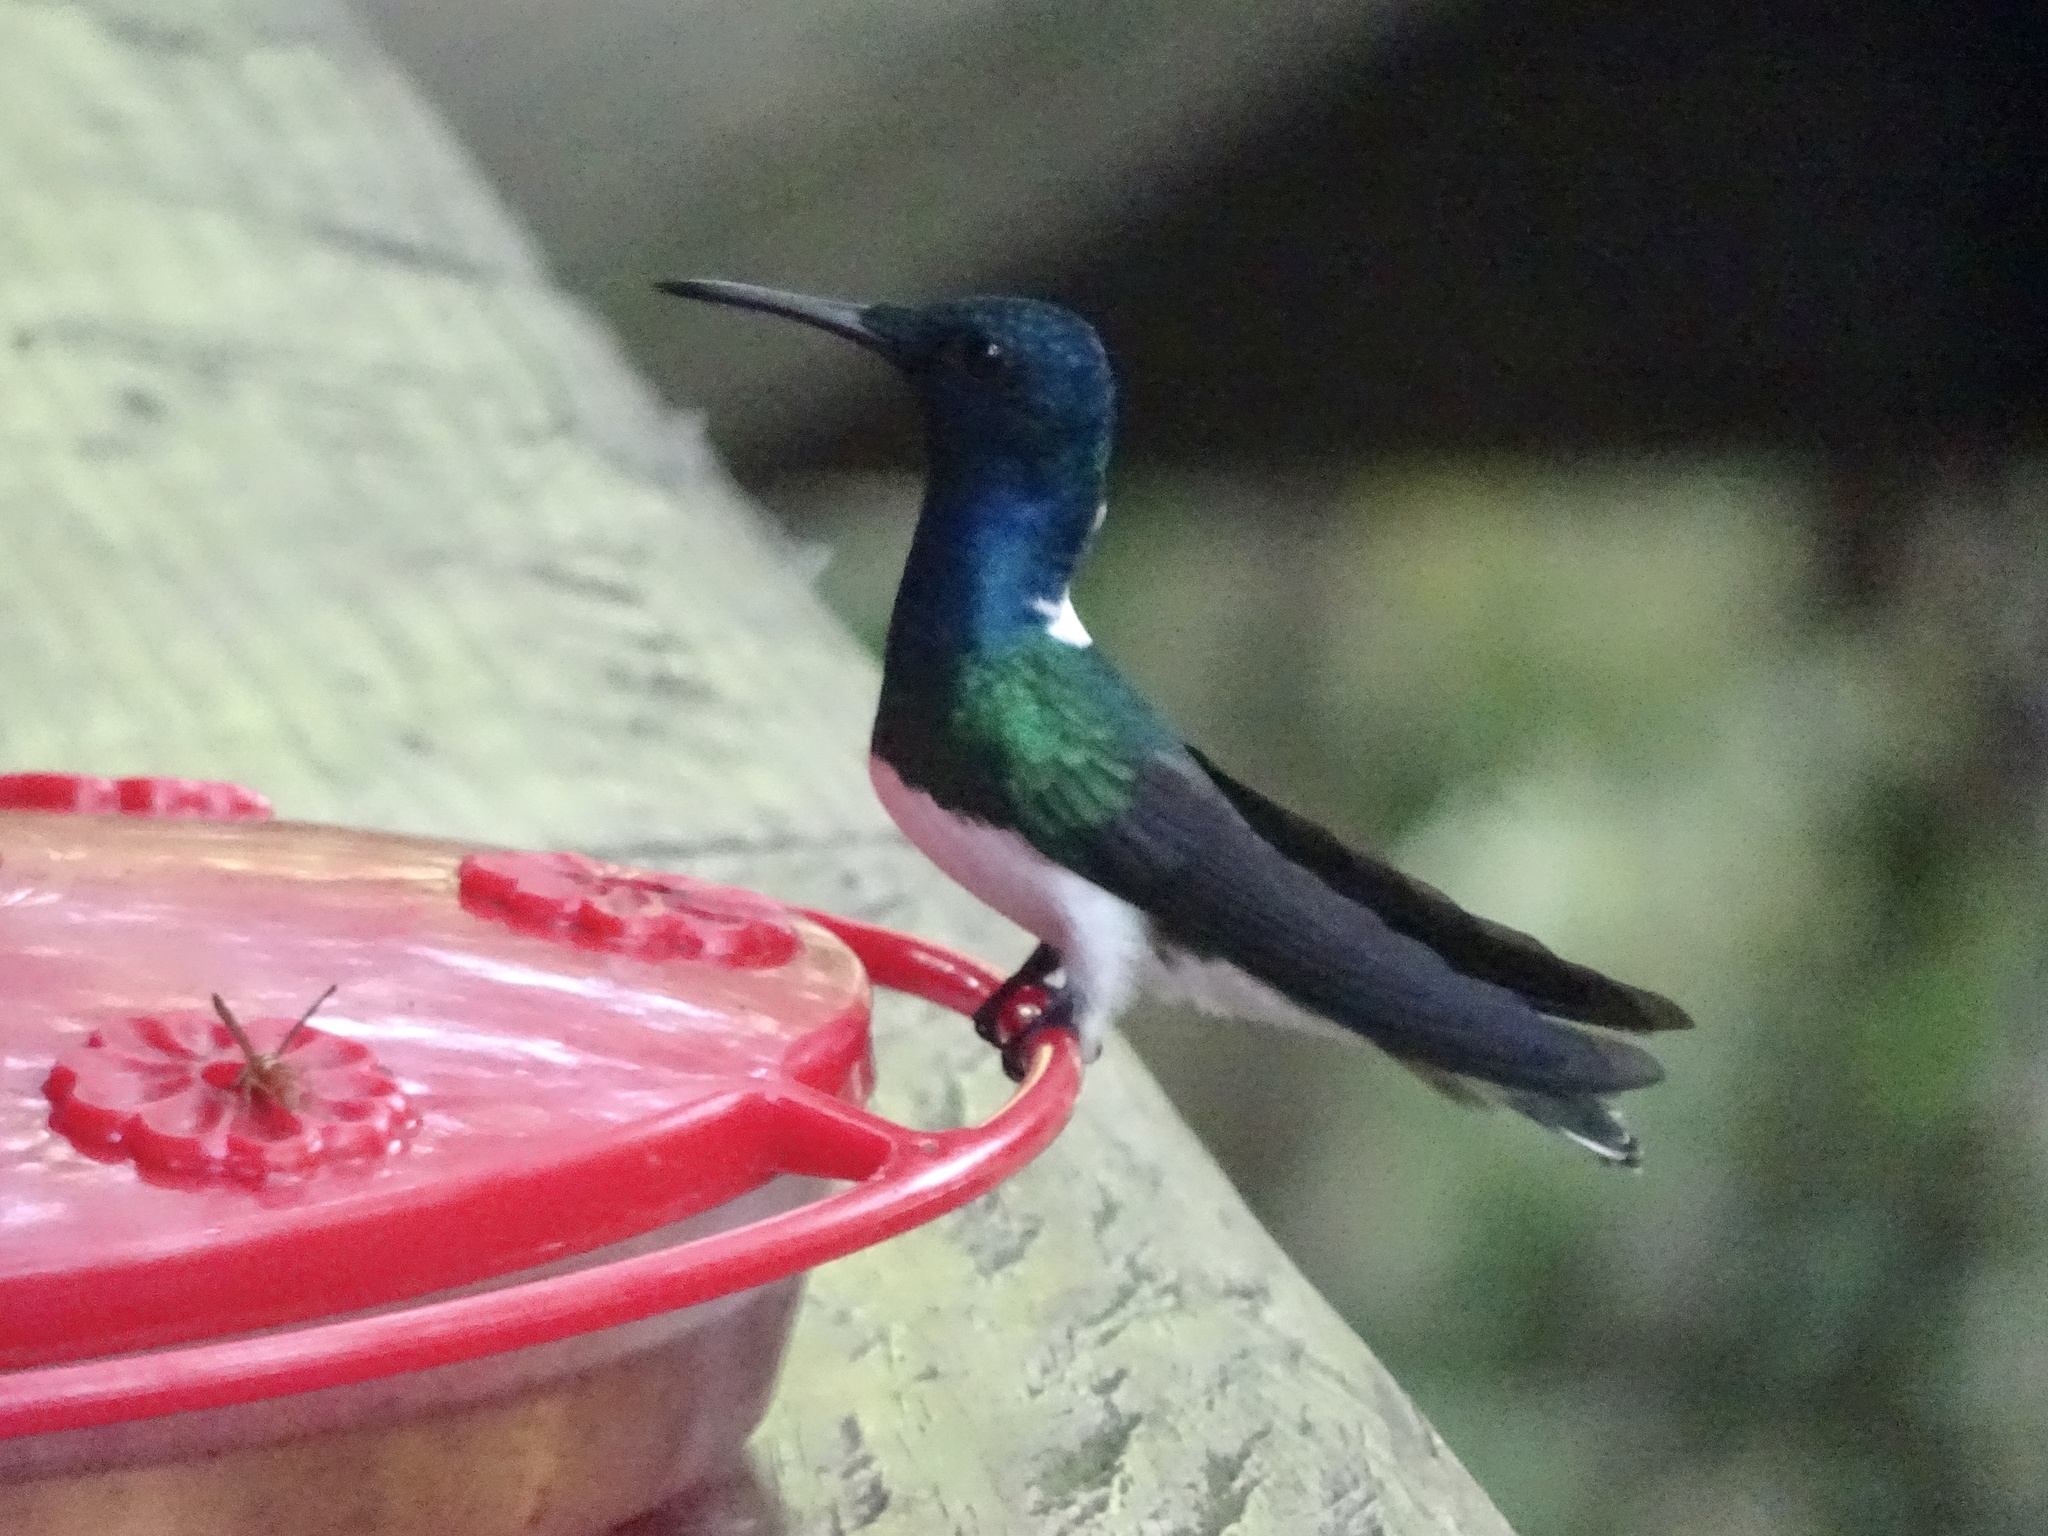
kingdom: Animalia
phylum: Chordata
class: Aves
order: Apodiformes
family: Trochilidae
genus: Florisuga
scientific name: Florisuga mellivora
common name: White-necked jacobin
